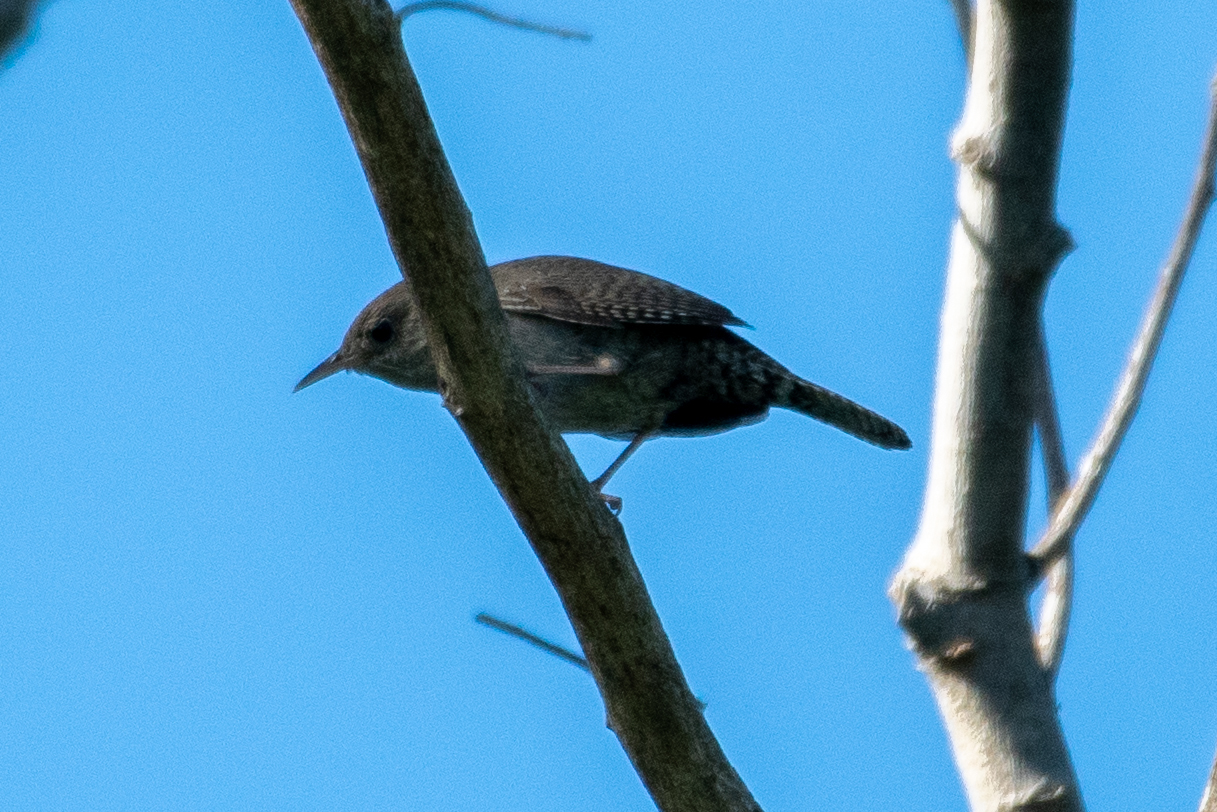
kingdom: Animalia
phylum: Chordata
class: Aves
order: Passeriformes
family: Troglodytidae
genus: Troglodytes
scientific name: Troglodytes aedon
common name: House wren
